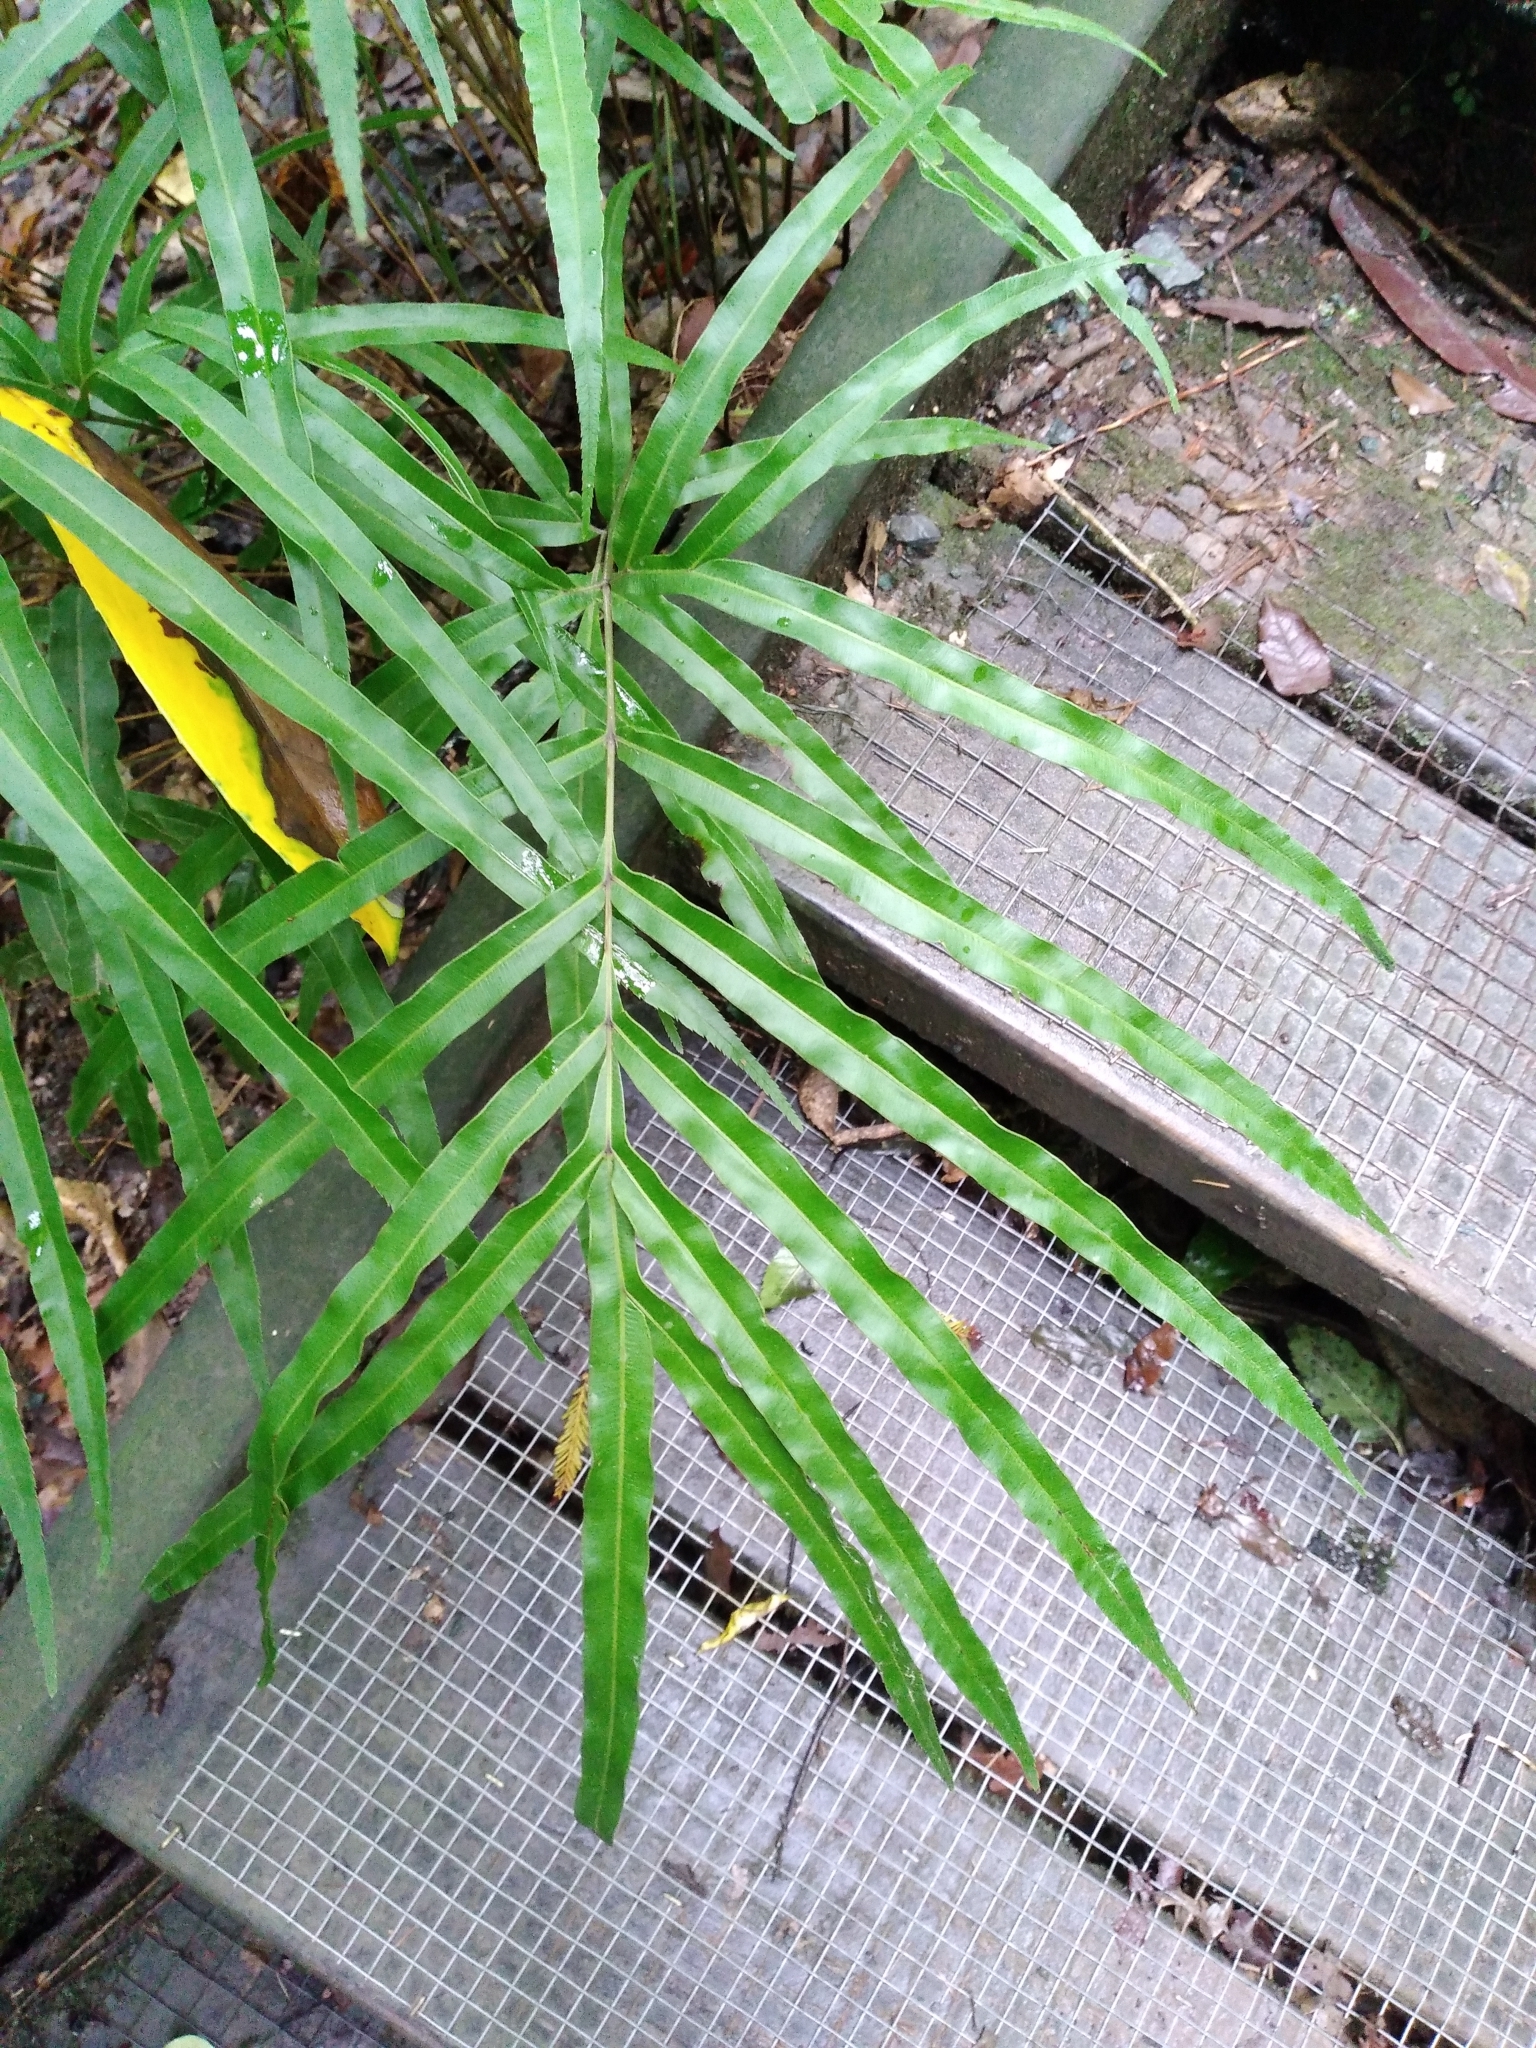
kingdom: Plantae
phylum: Tracheophyta
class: Polypodiopsida
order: Polypodiales
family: Pteridaceae
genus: Pteris
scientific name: Pteris cretica
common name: Ribbon fern
